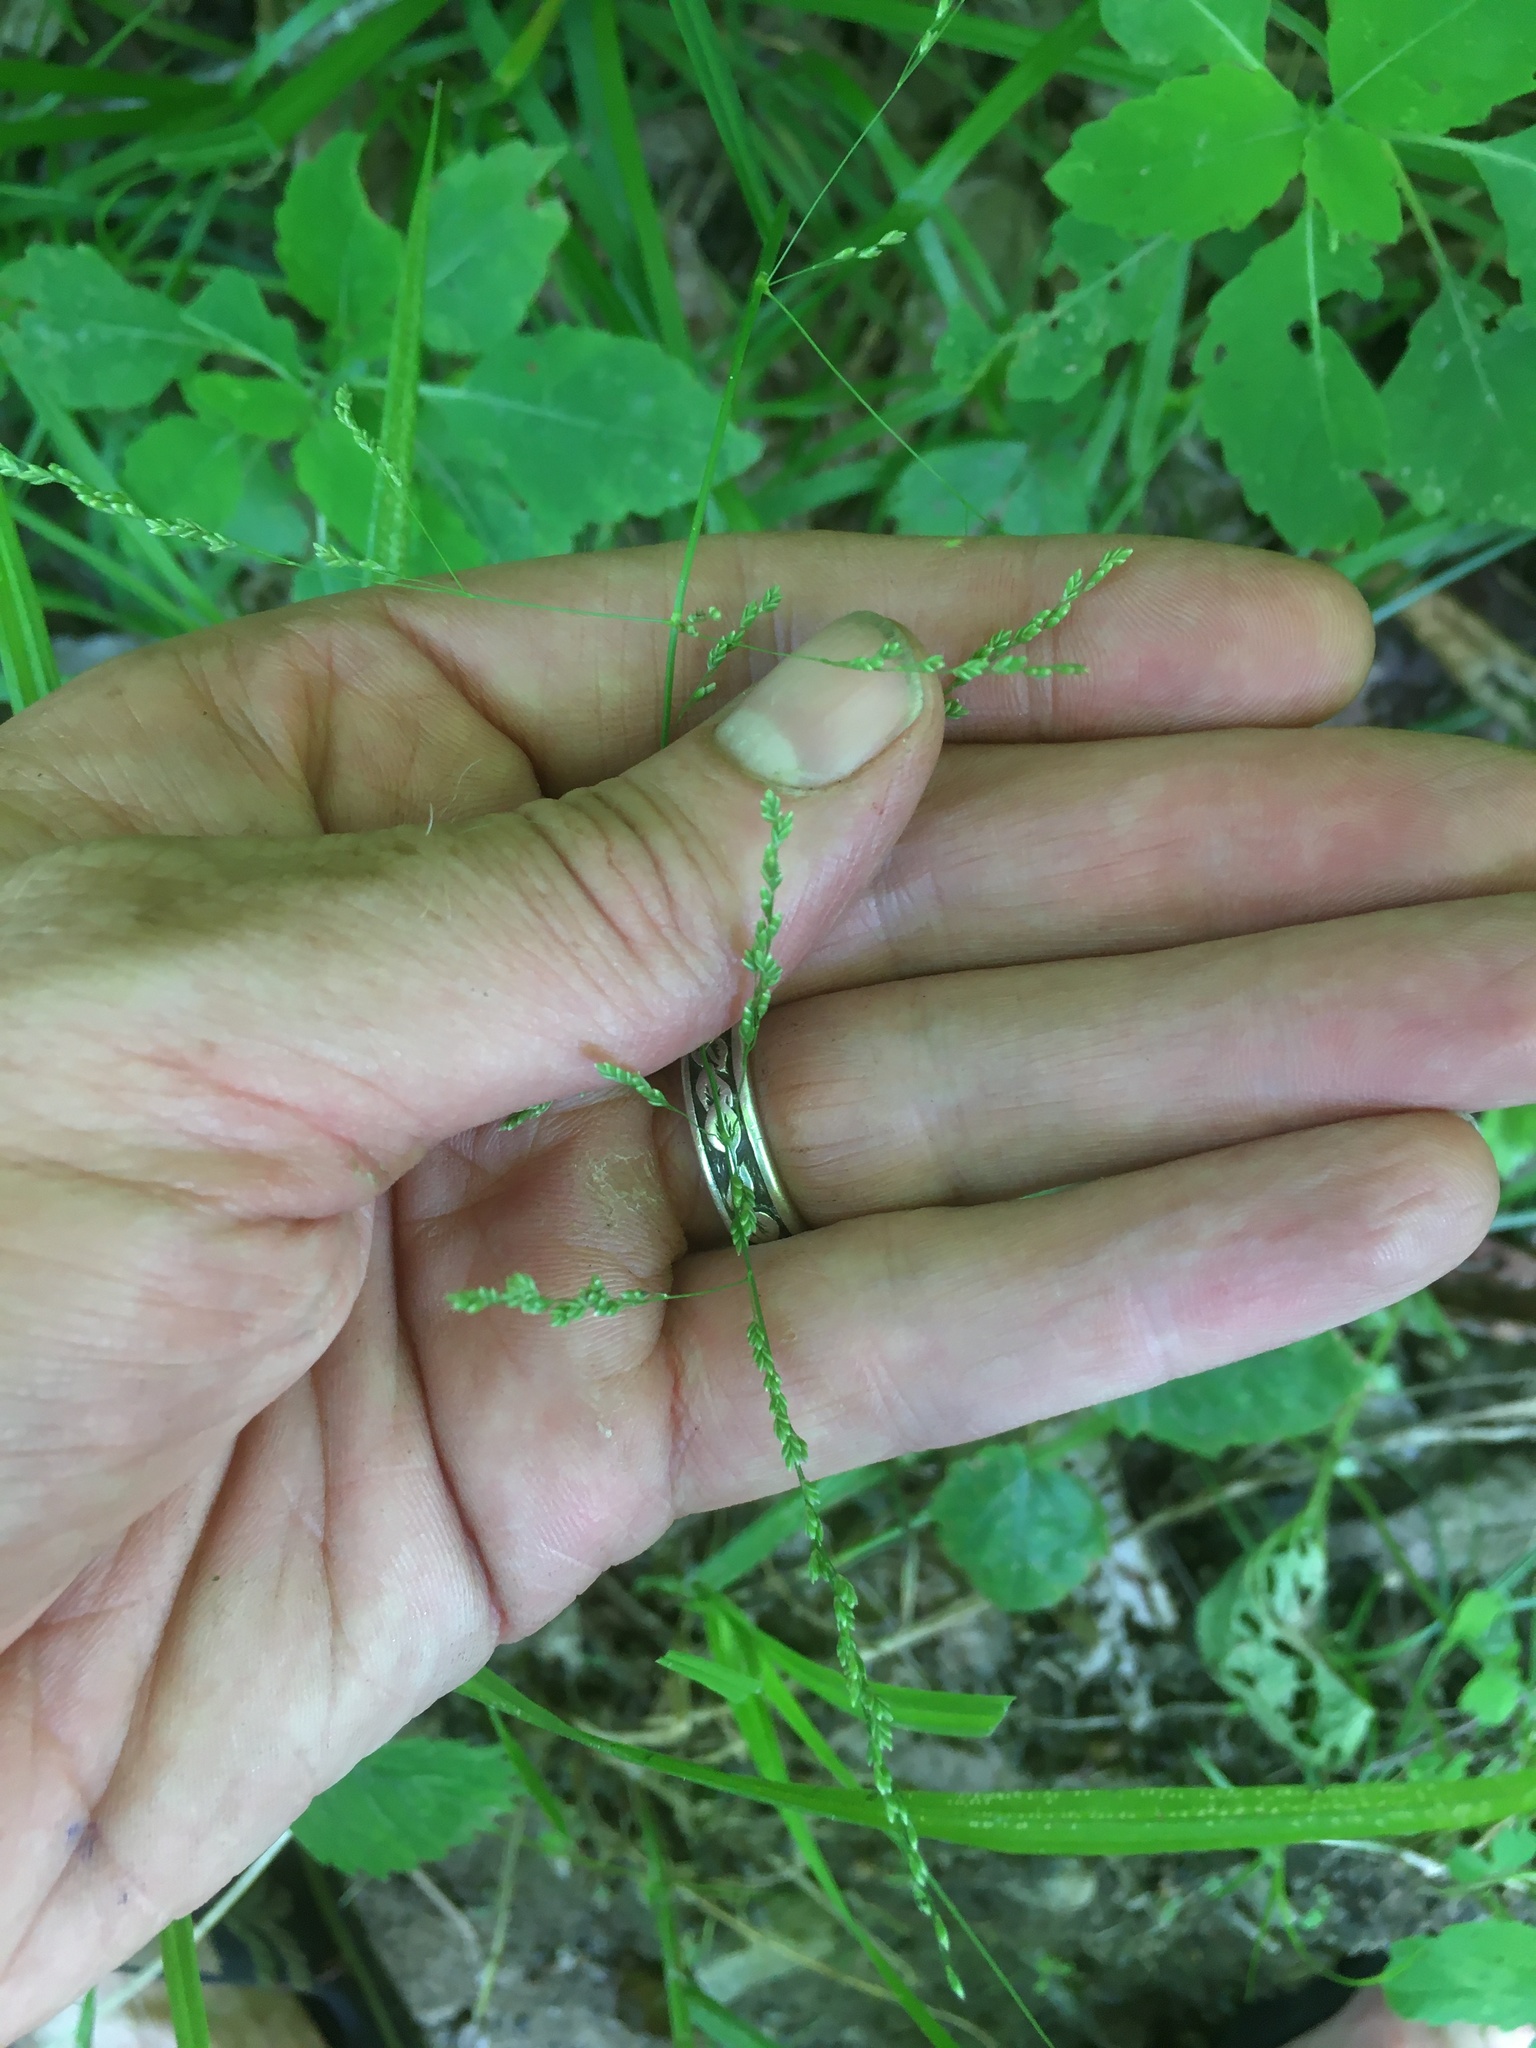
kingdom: Plantae
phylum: Tracheophyta
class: Liliopsida
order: Poales
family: Poaceae
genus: Glyceria
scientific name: Glyceria striata
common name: Fowl manna grass
